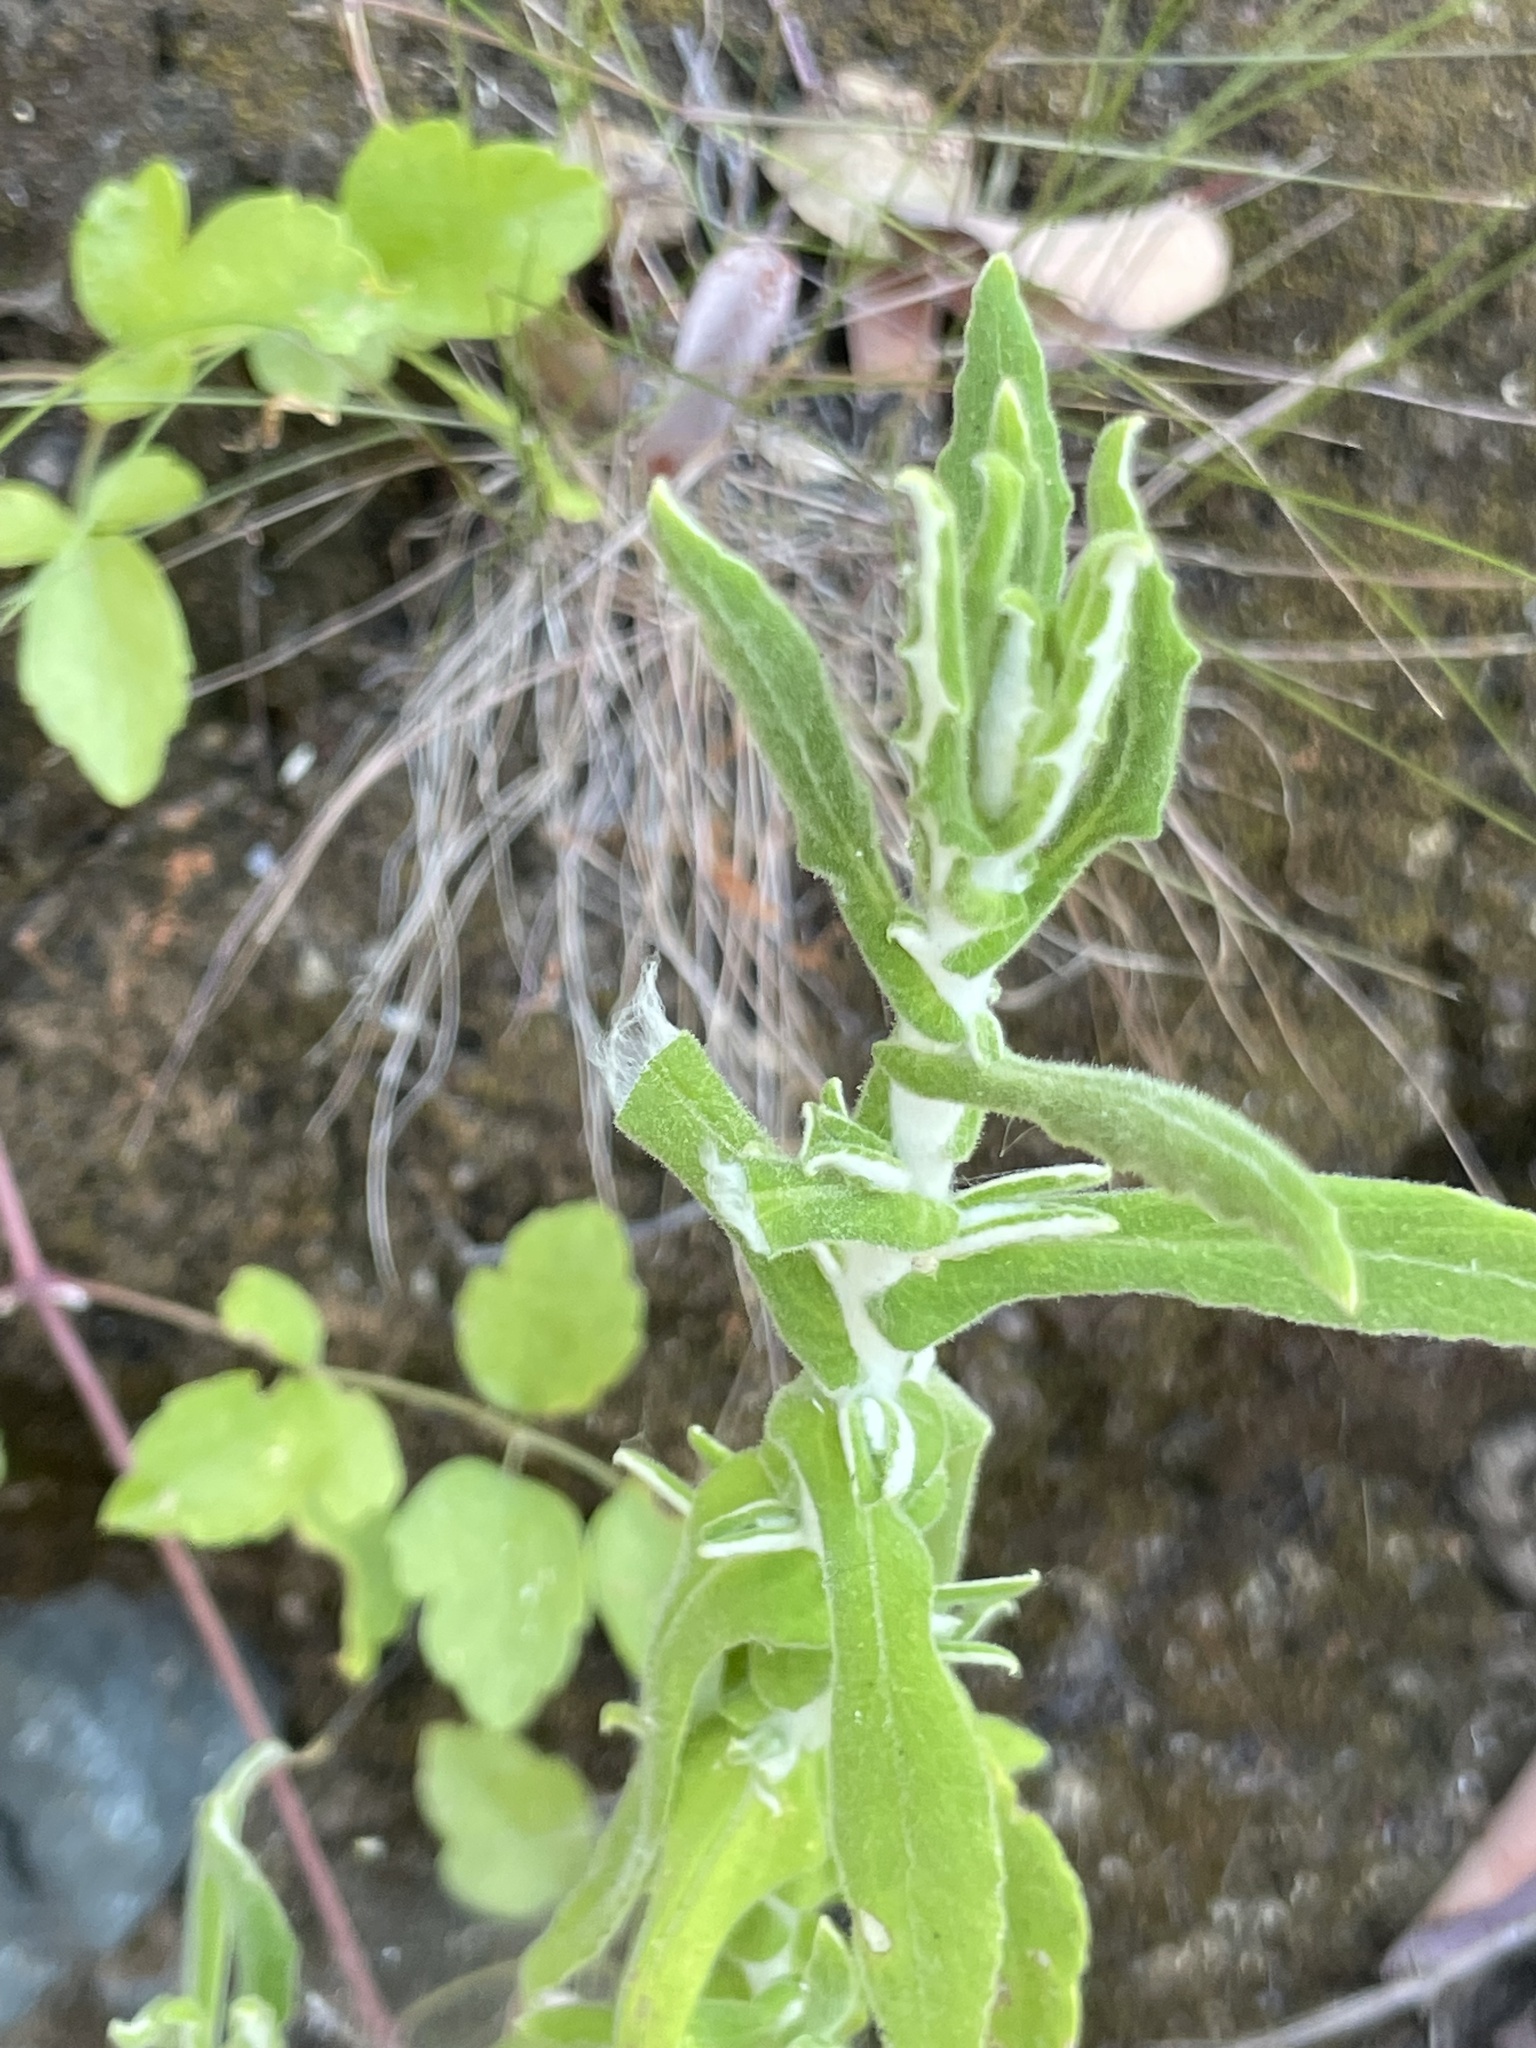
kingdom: Plantae
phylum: Tracheophyta
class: Magnoliopsida
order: Asterales
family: Asteraceae
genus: Pseudognaphalium
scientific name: Pseudognaphalium biolettii
